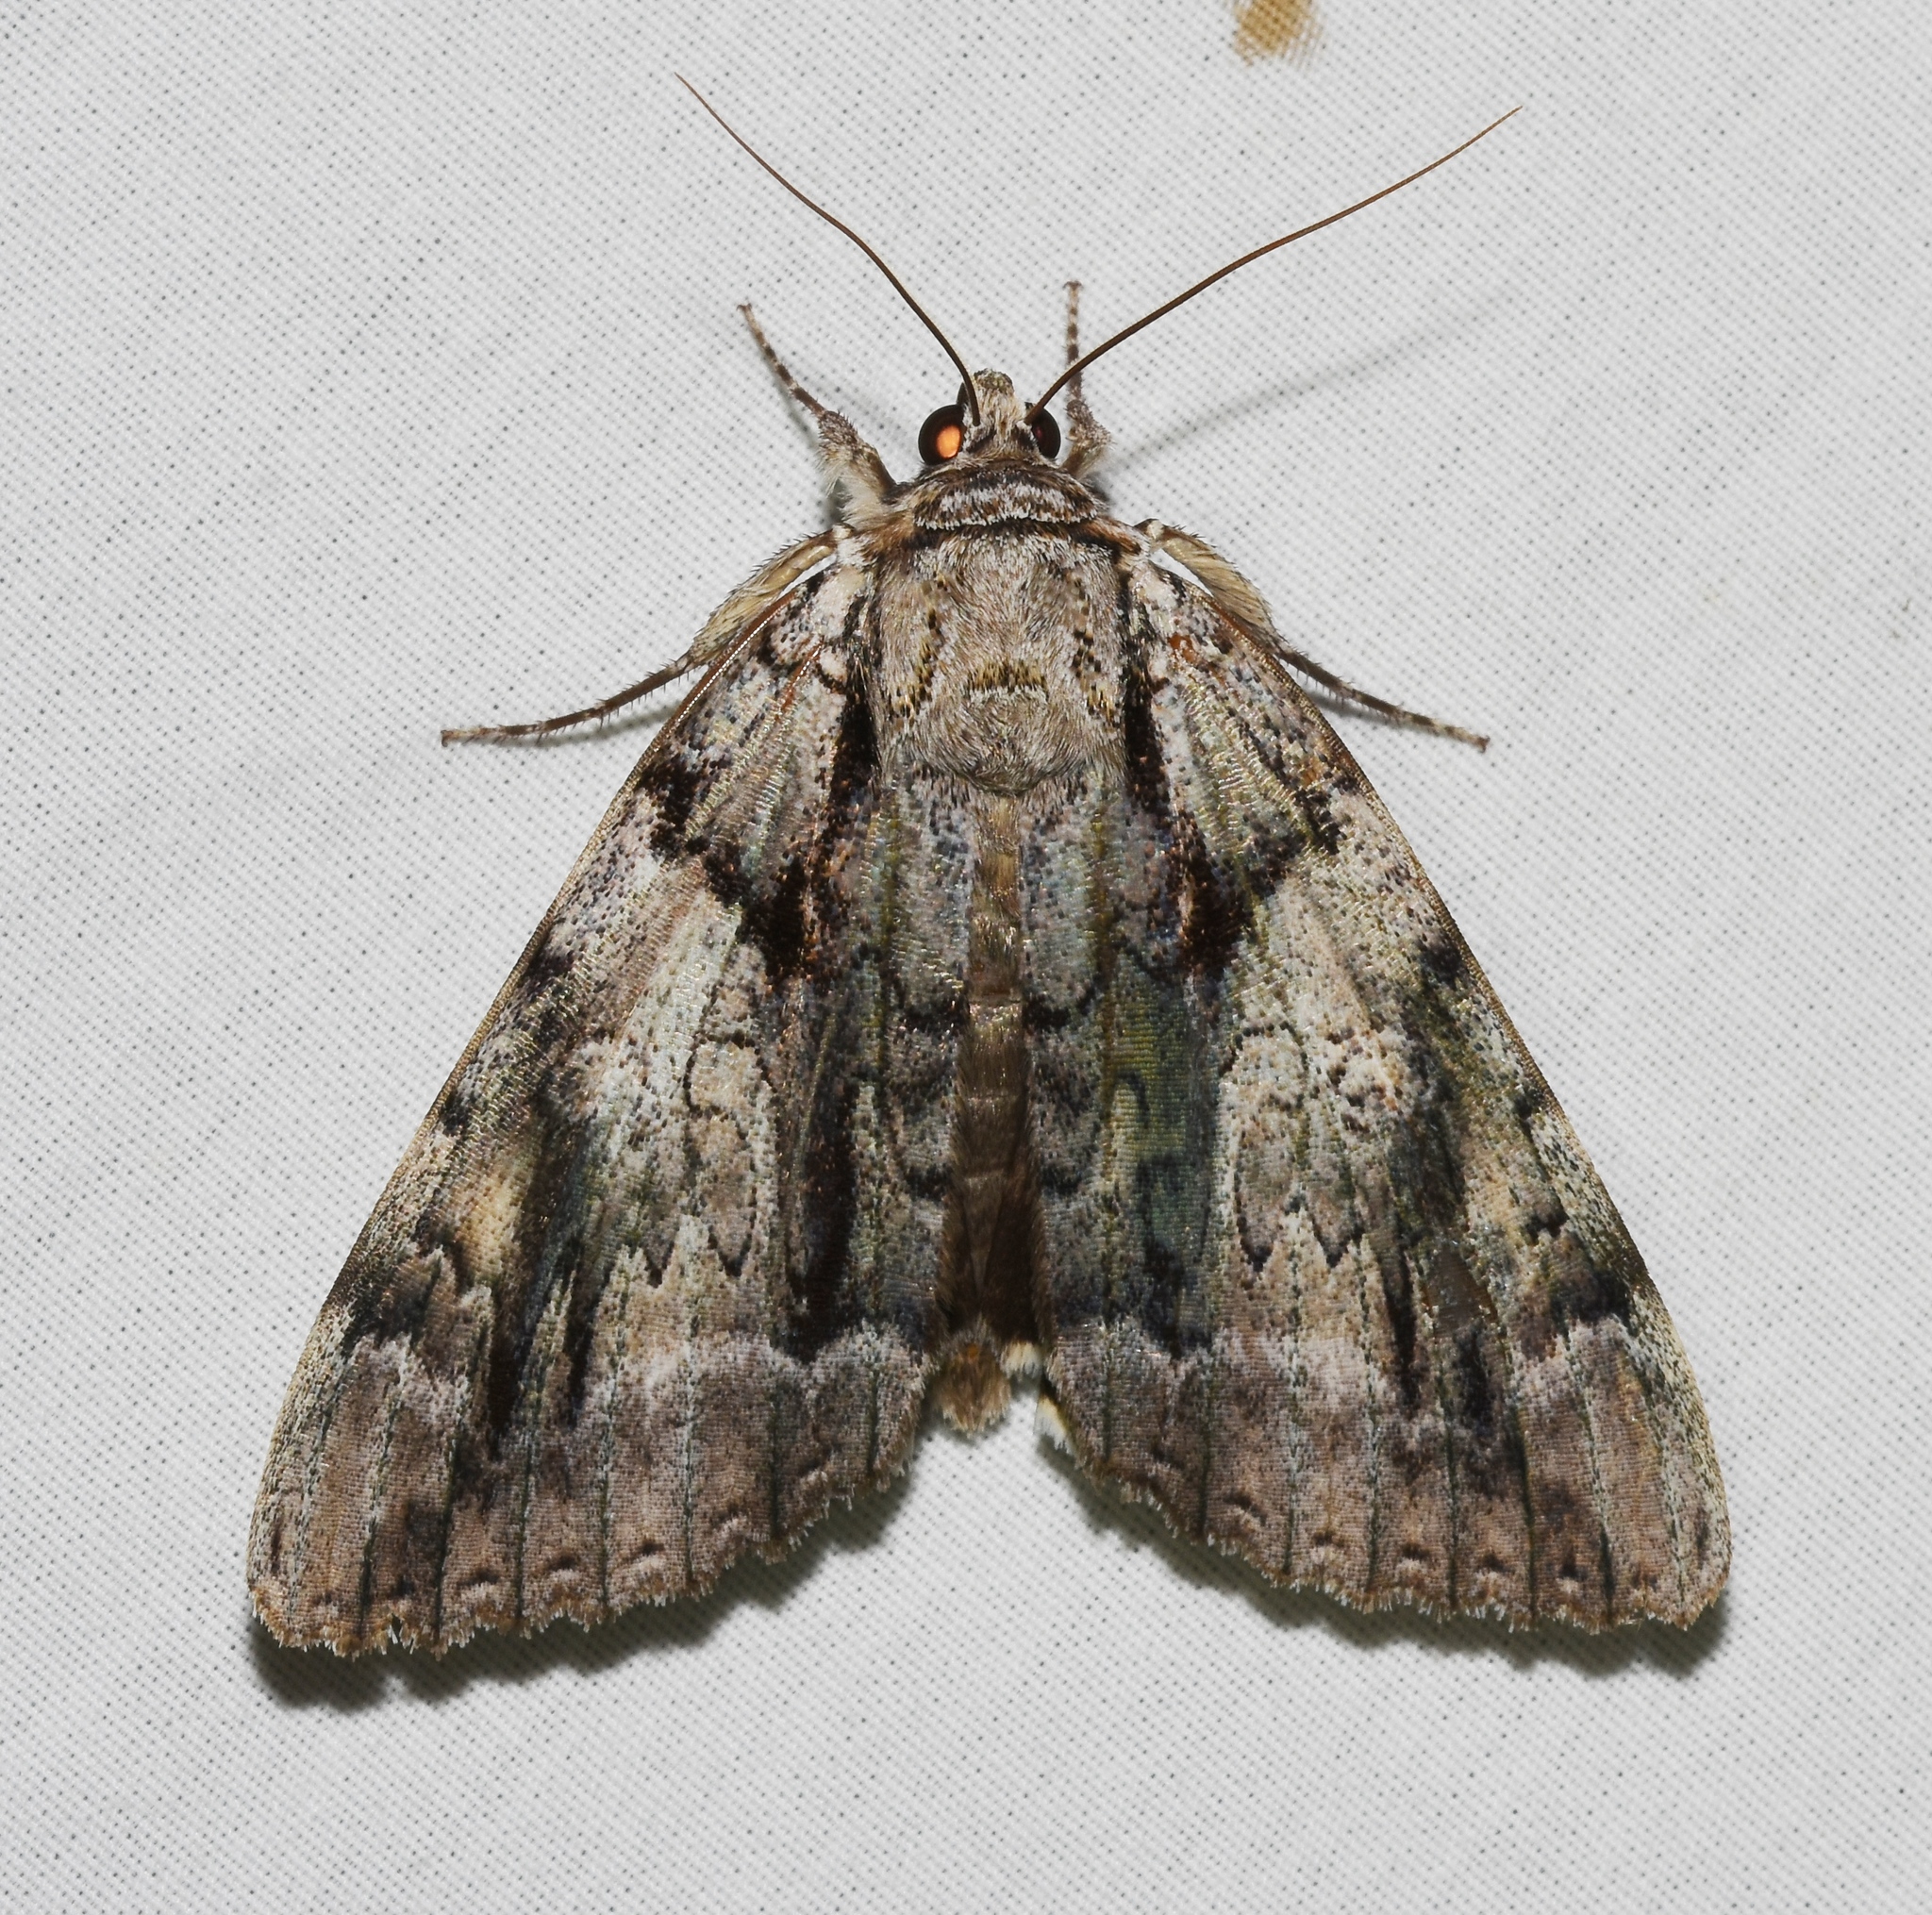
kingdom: Animalia
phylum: Arthropoda
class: Insecta
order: Lepidoptera
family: Erebidae
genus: Catocala
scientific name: Catocala vidua
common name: The widow
